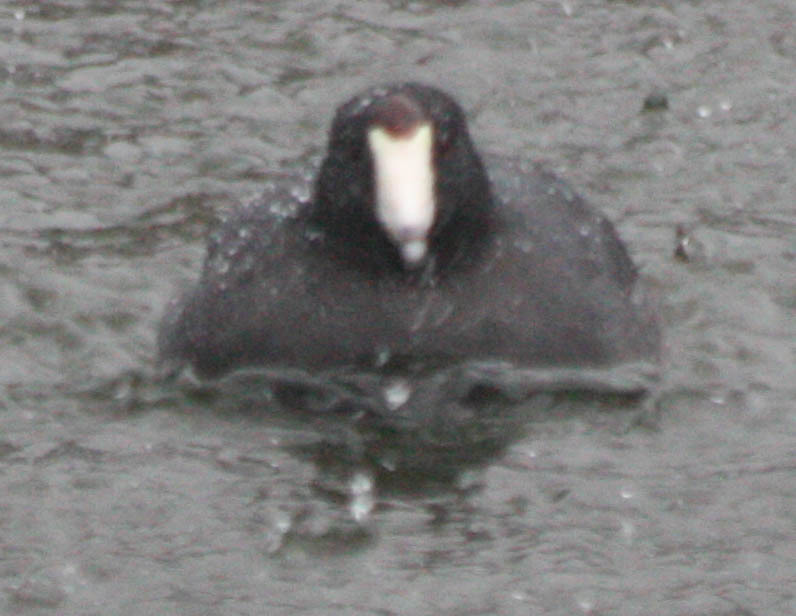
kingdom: Animalia
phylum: Chordata
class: Aves
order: Gruiformes
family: Rallidae
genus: Fulica
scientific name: Fulica americana
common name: American coot
